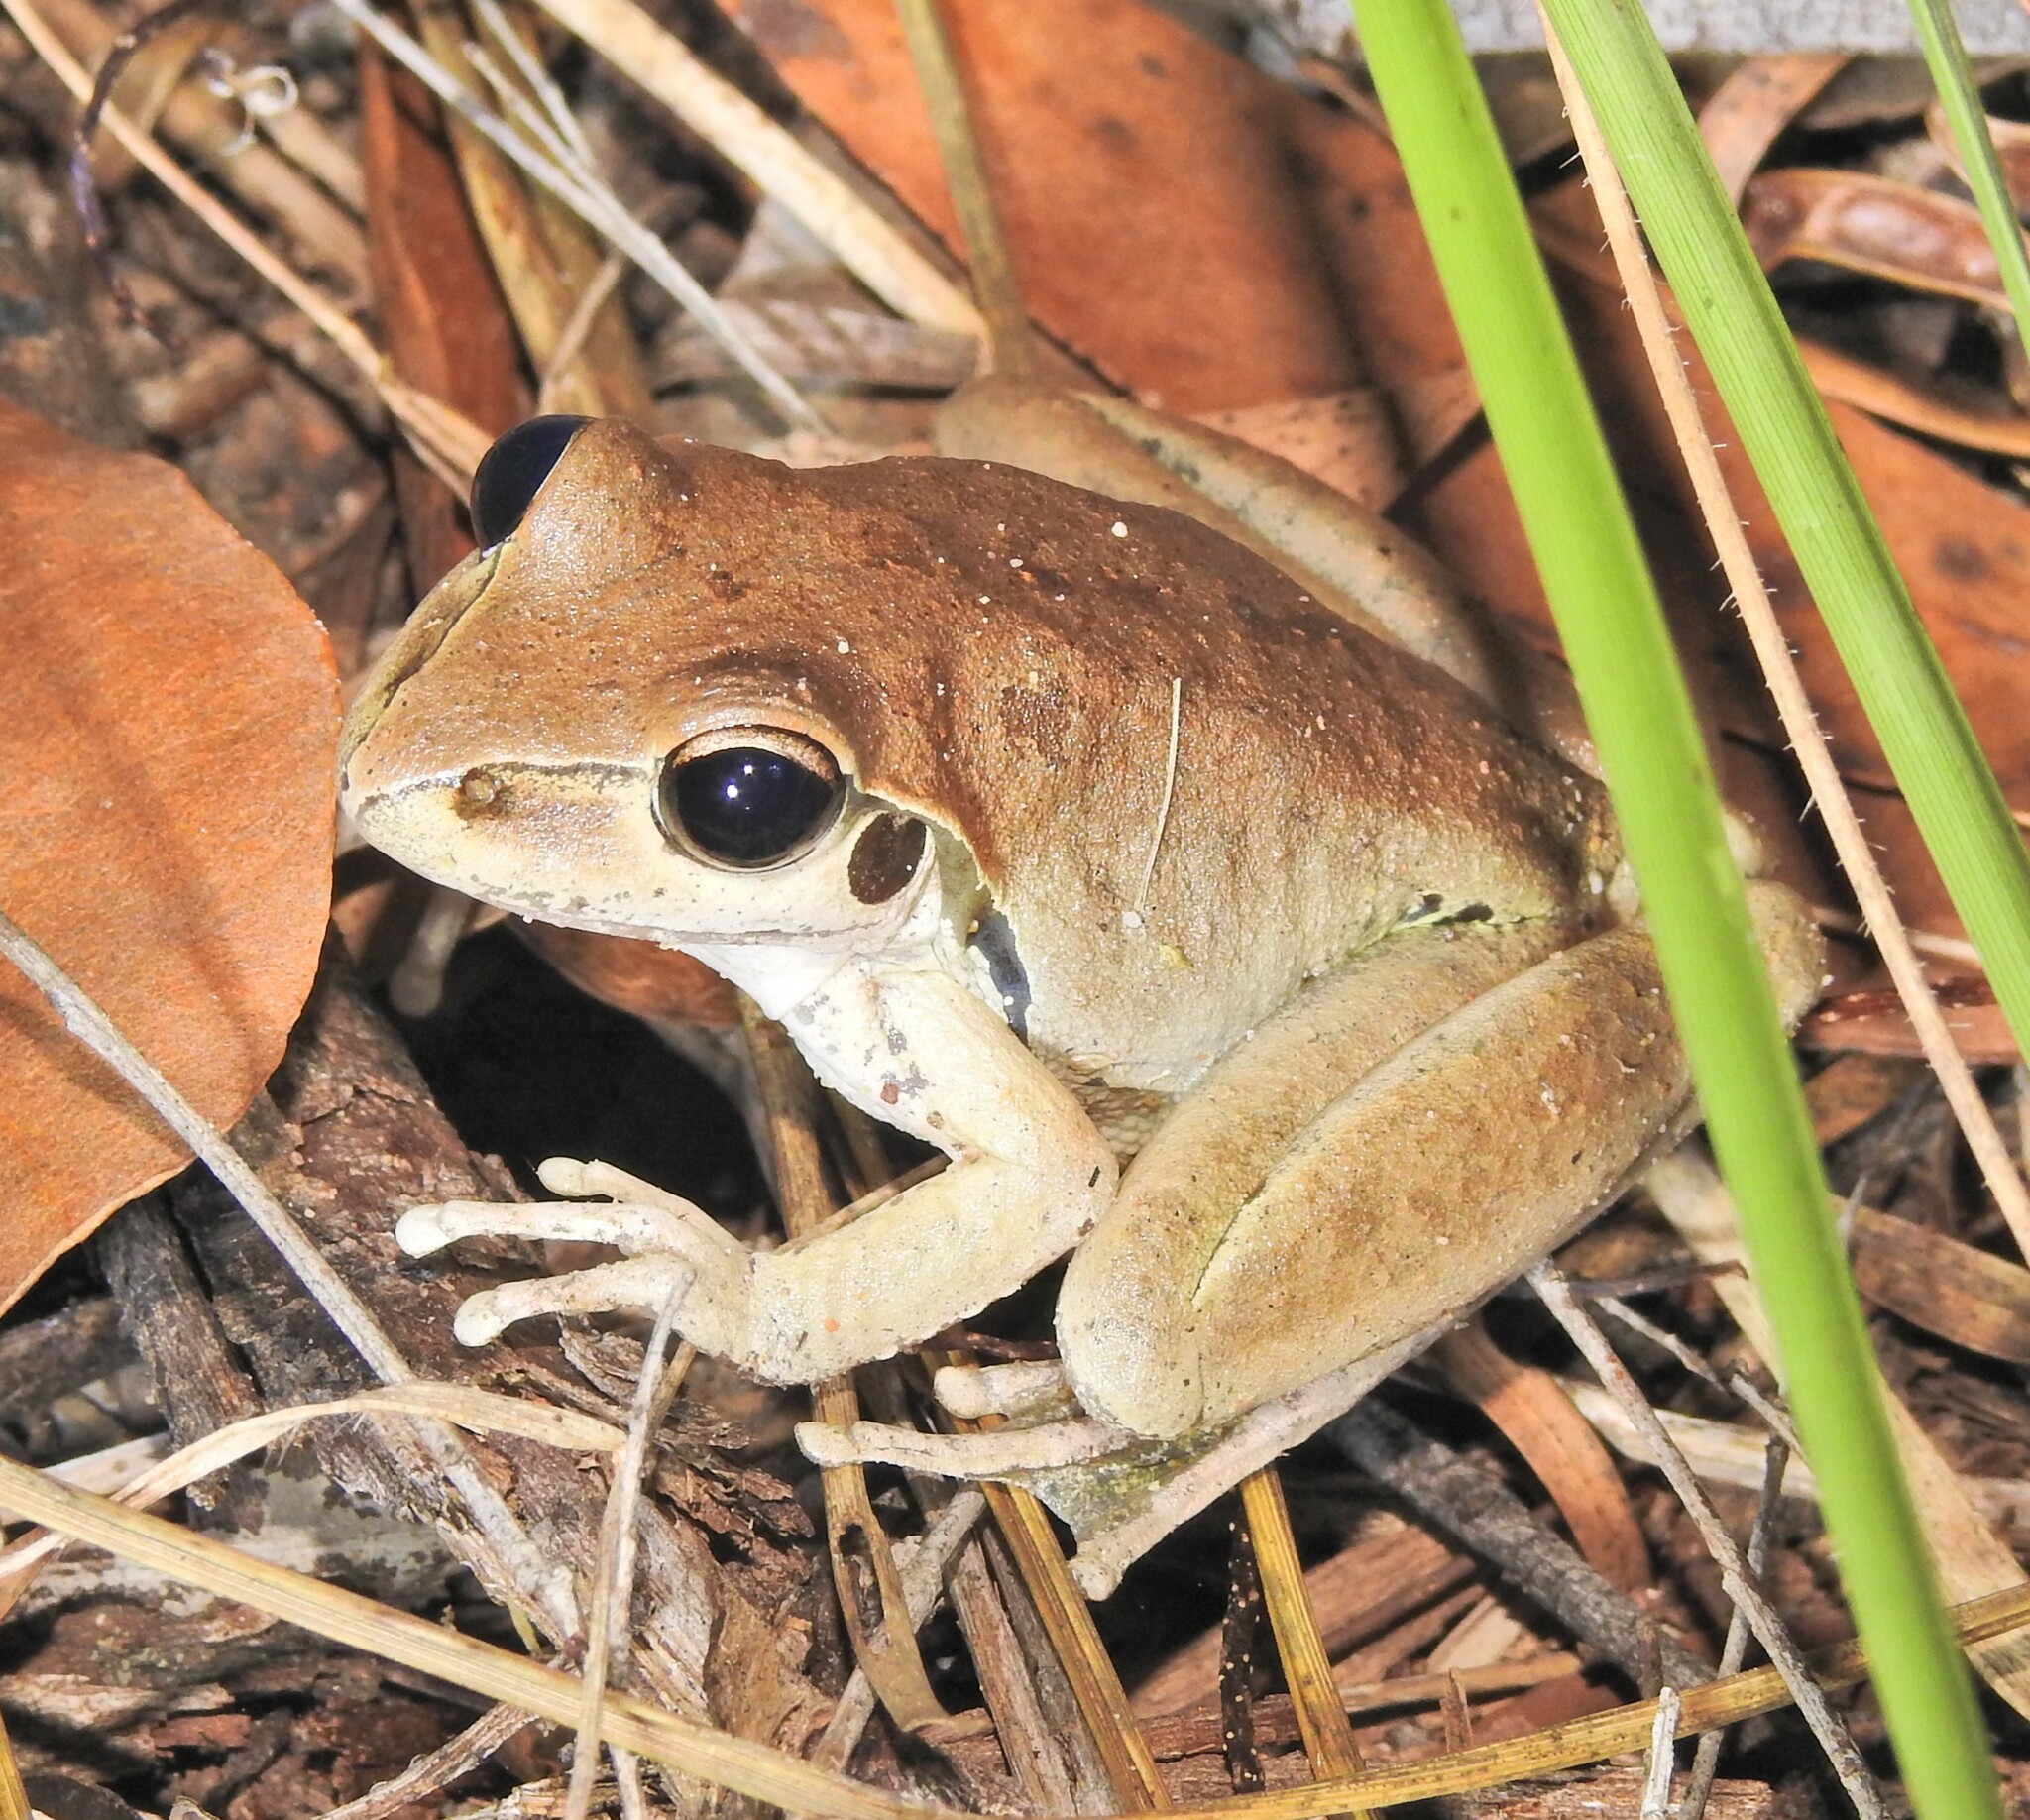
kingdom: Animalia
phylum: Chordata
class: Amphibia
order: Anura
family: Pelodryadidae
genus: Ranoidea
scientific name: Ranoidea wilcoxii
